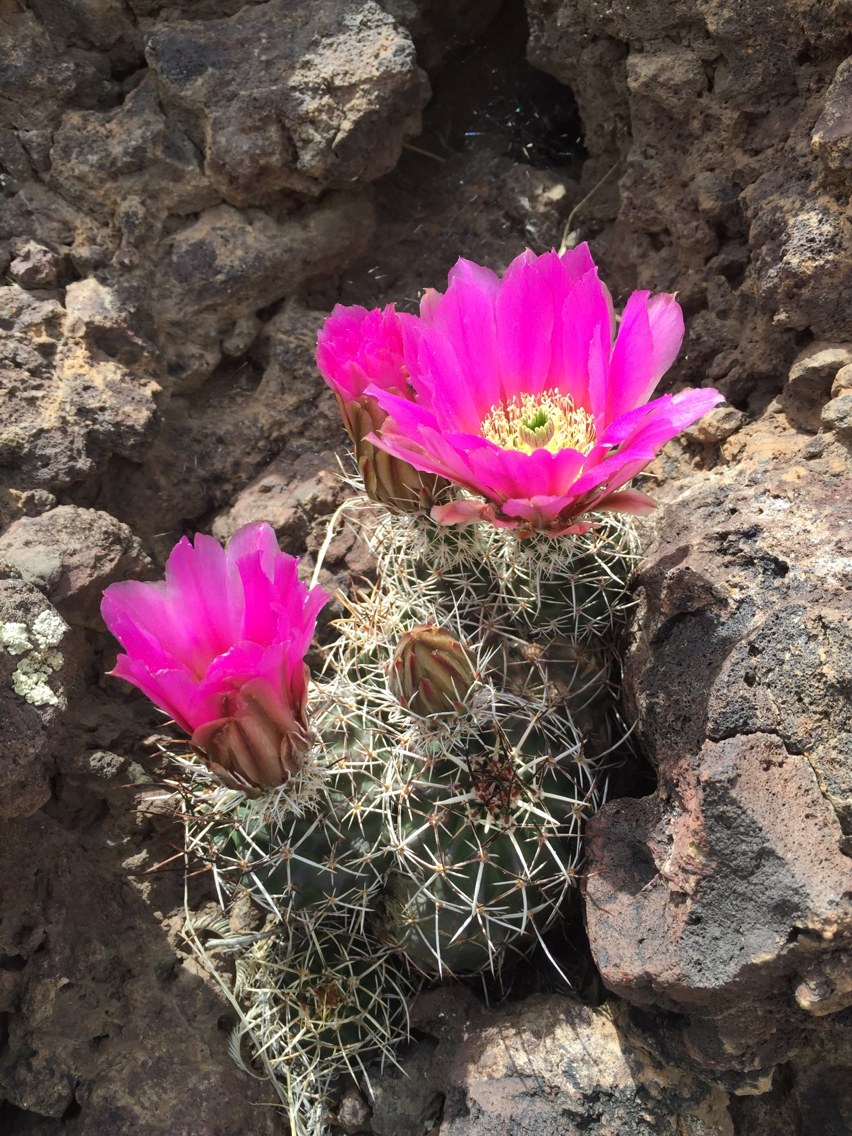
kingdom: Plantae
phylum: Tracheophyta
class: Magnoliopsida
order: Caryophyllales
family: Cactaceae
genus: Echinocereus
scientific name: Echinocereus fendleri
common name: Fendler's hedgehog cactus
